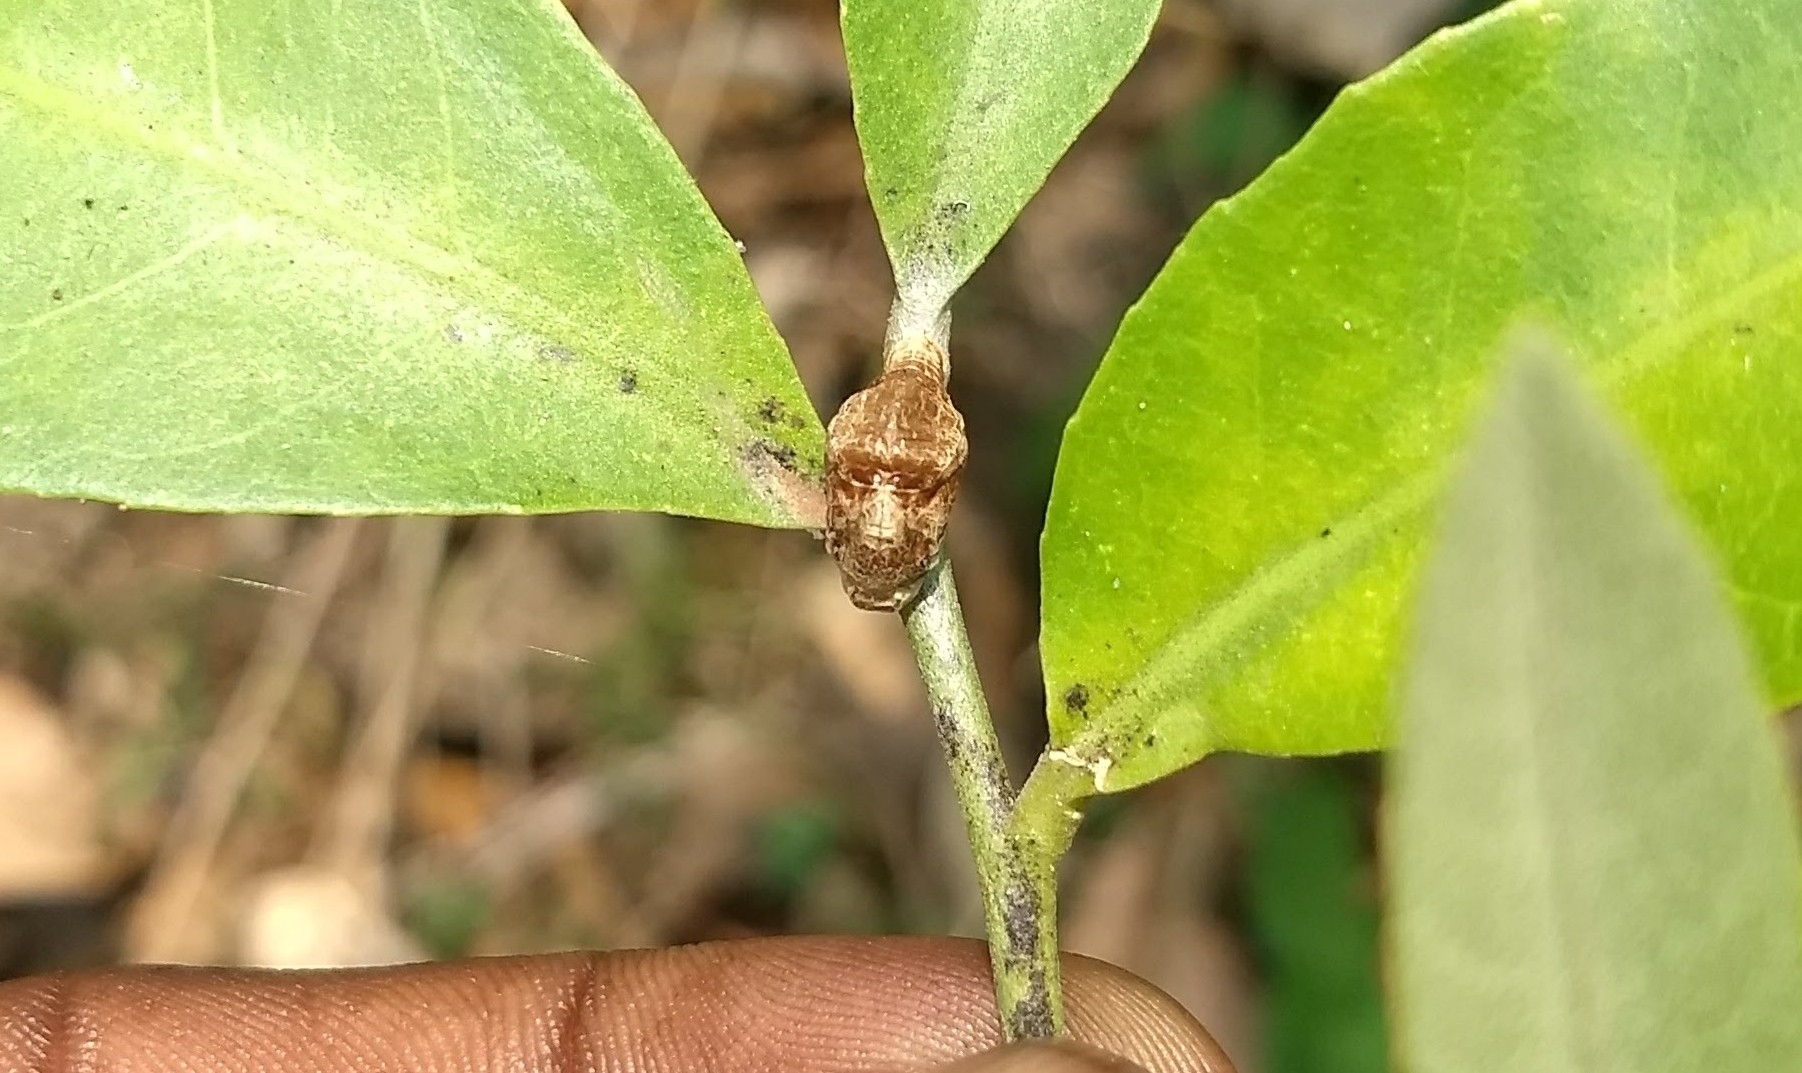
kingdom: Animalia
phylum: Arthropoda
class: Insecta
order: Lepidoptera
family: Lycaenidae
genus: Spalgis
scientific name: Spalgis epius
